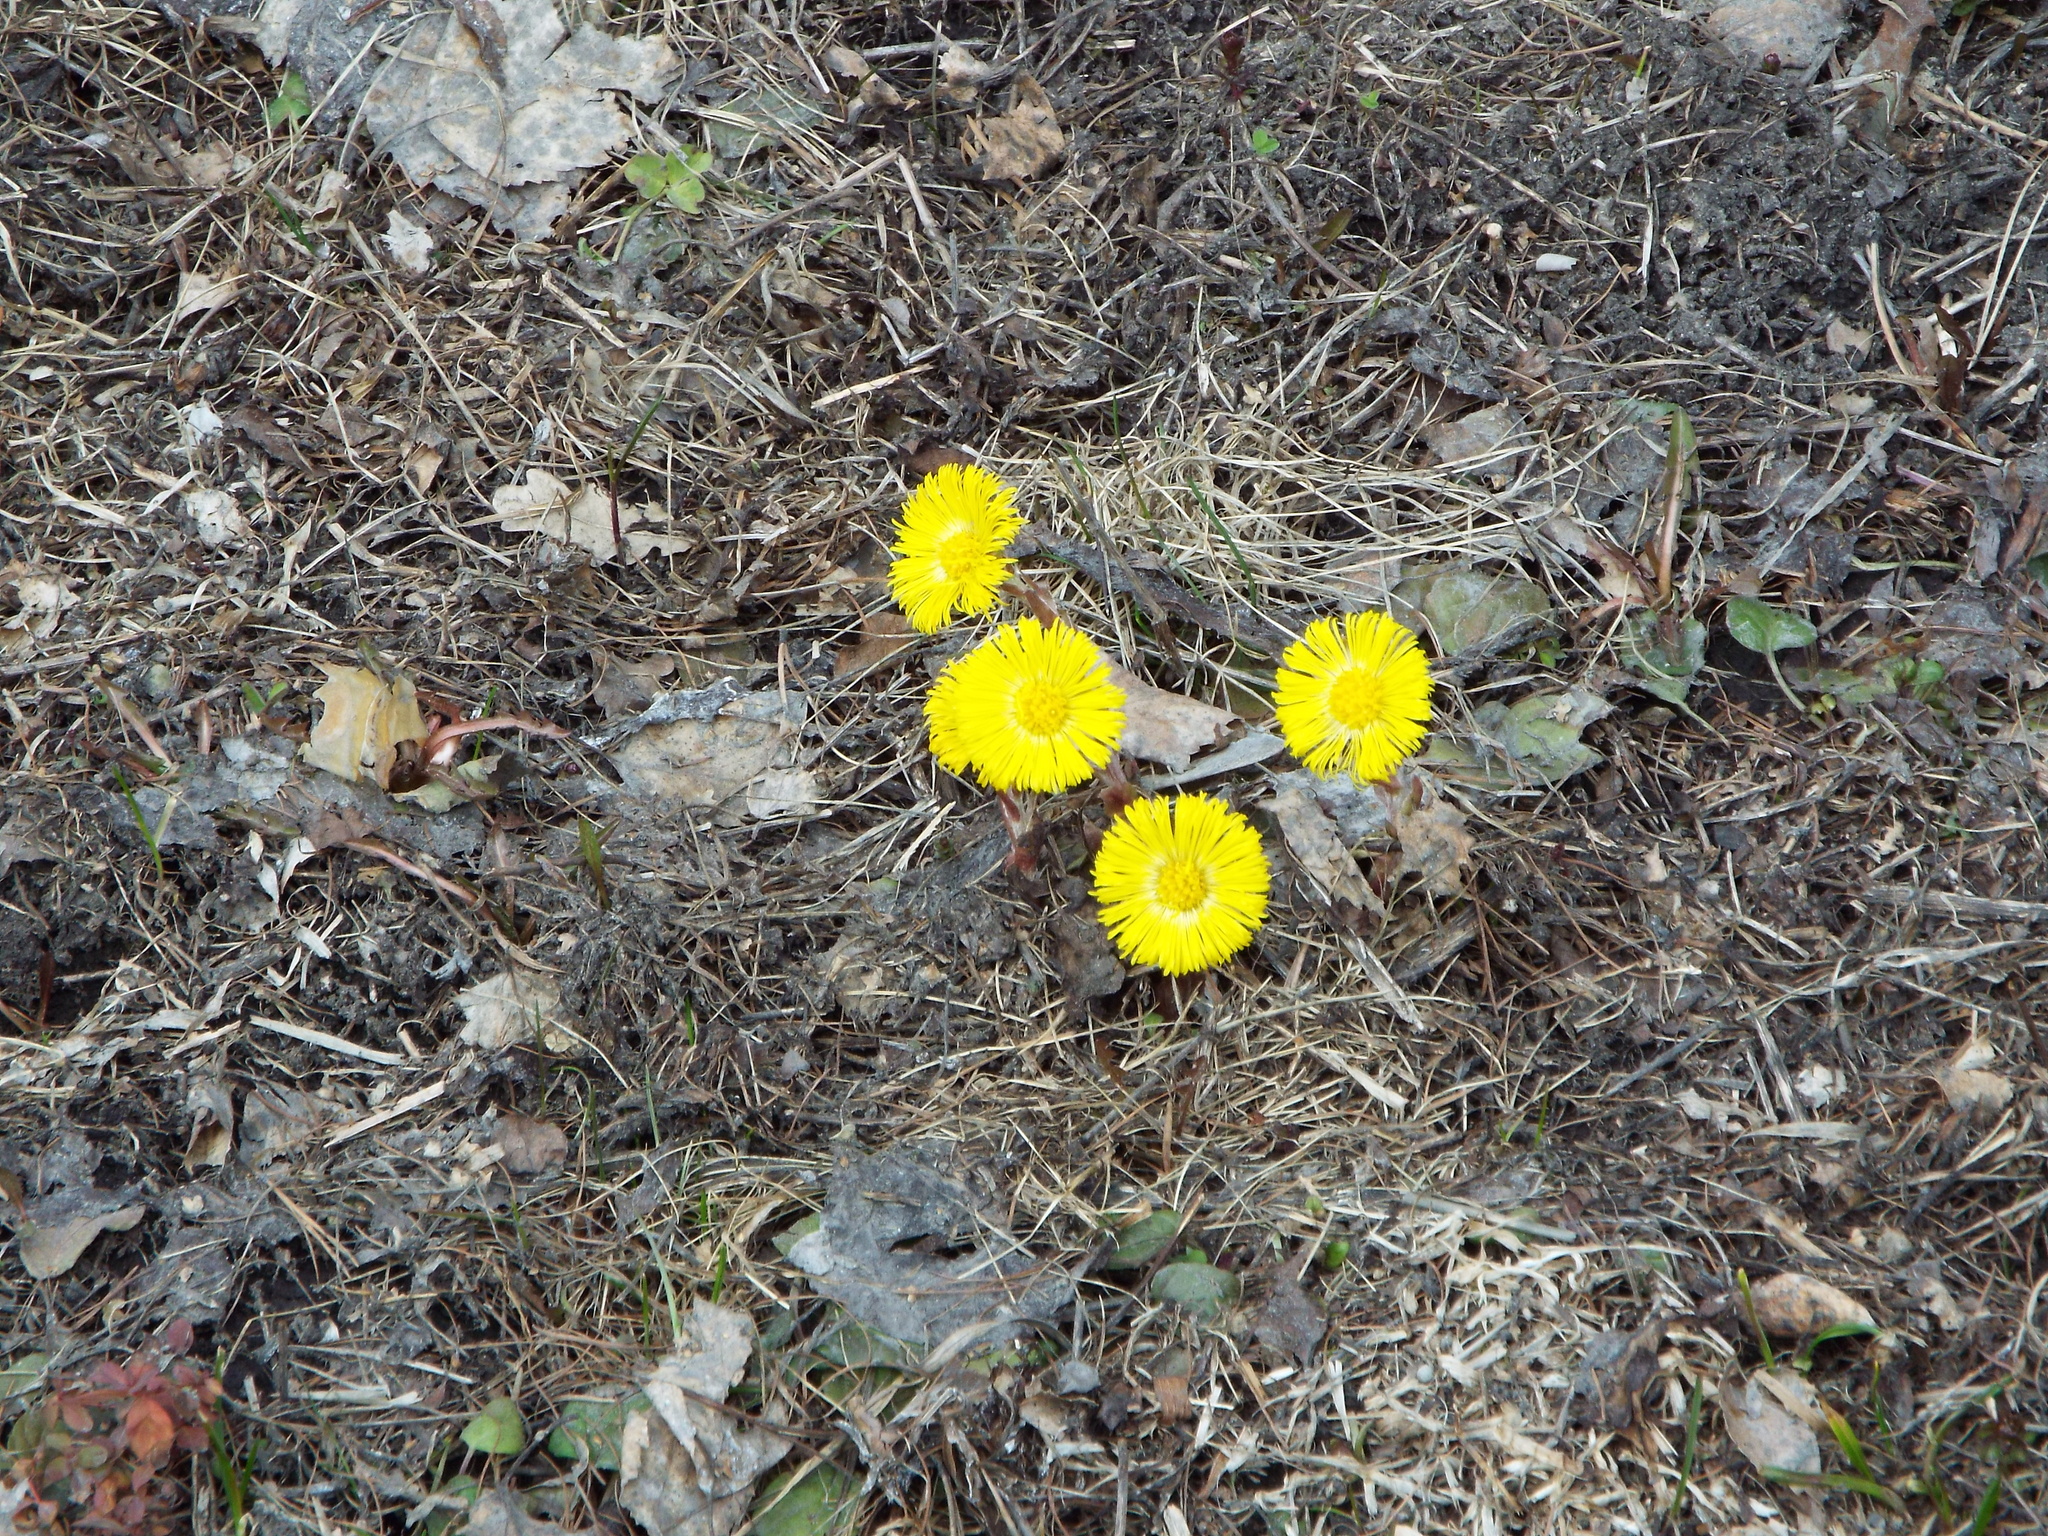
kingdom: Plantae
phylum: Tracheophyta
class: Magnoliopsida
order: Asterales
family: Asteraceae
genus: Tussilago
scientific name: Tussilago farfara
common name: Coltsfoot
